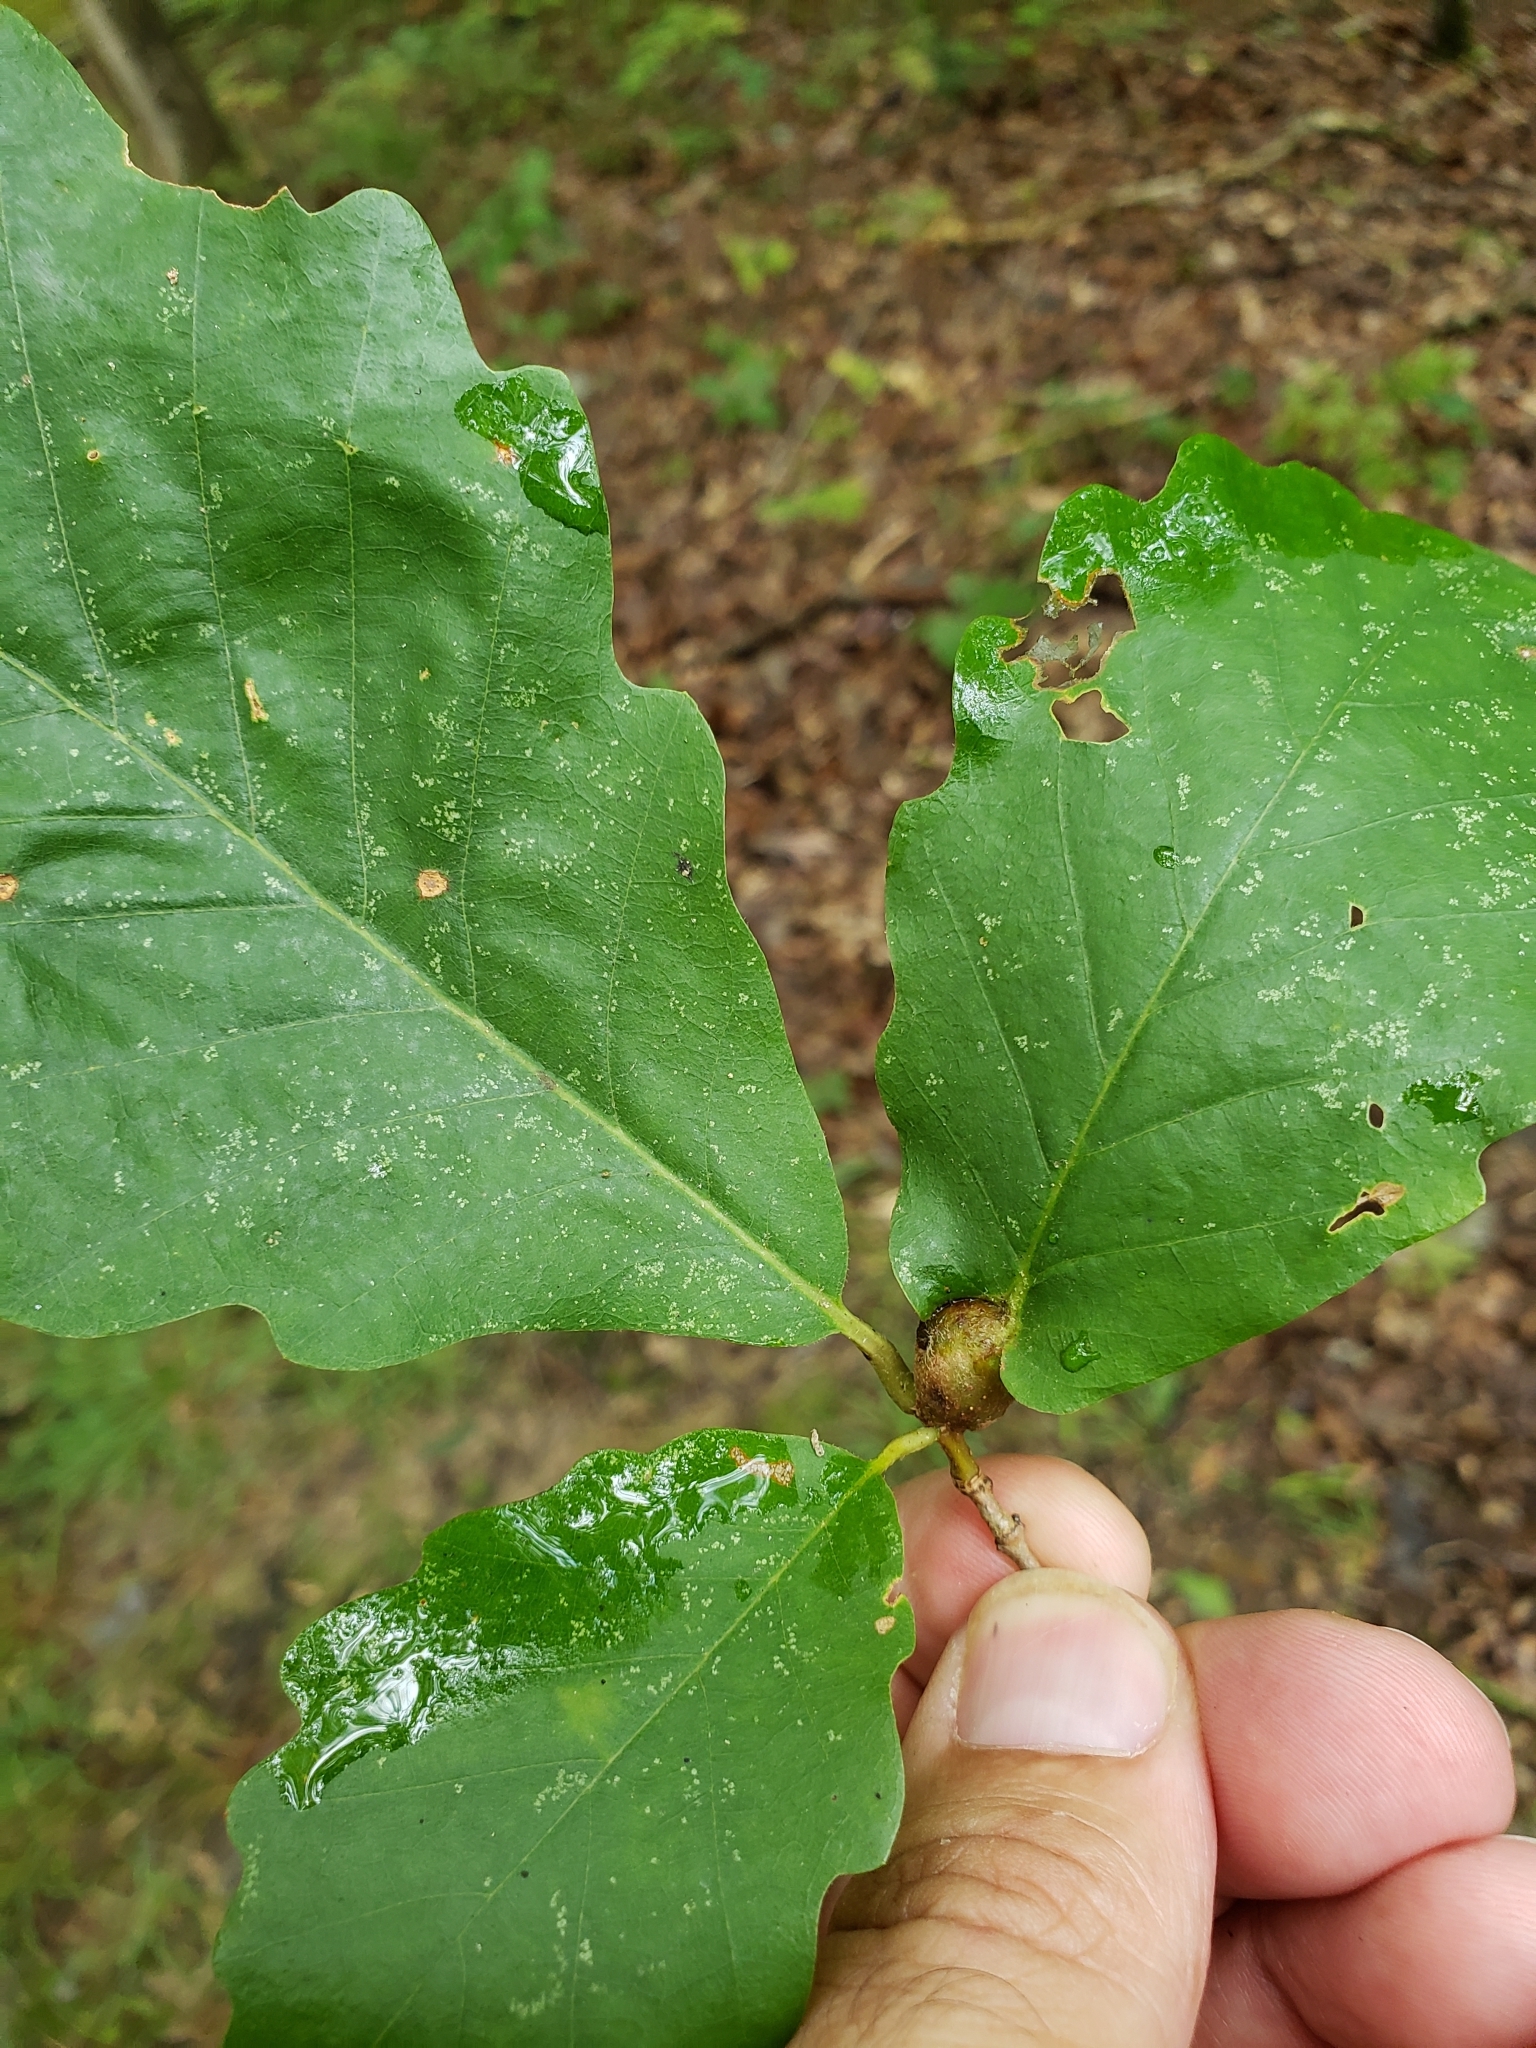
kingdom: Animalia
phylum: Arthropoda
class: Insecta
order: Hymenoptera
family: Cynipidae
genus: Andricus
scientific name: Andricus
